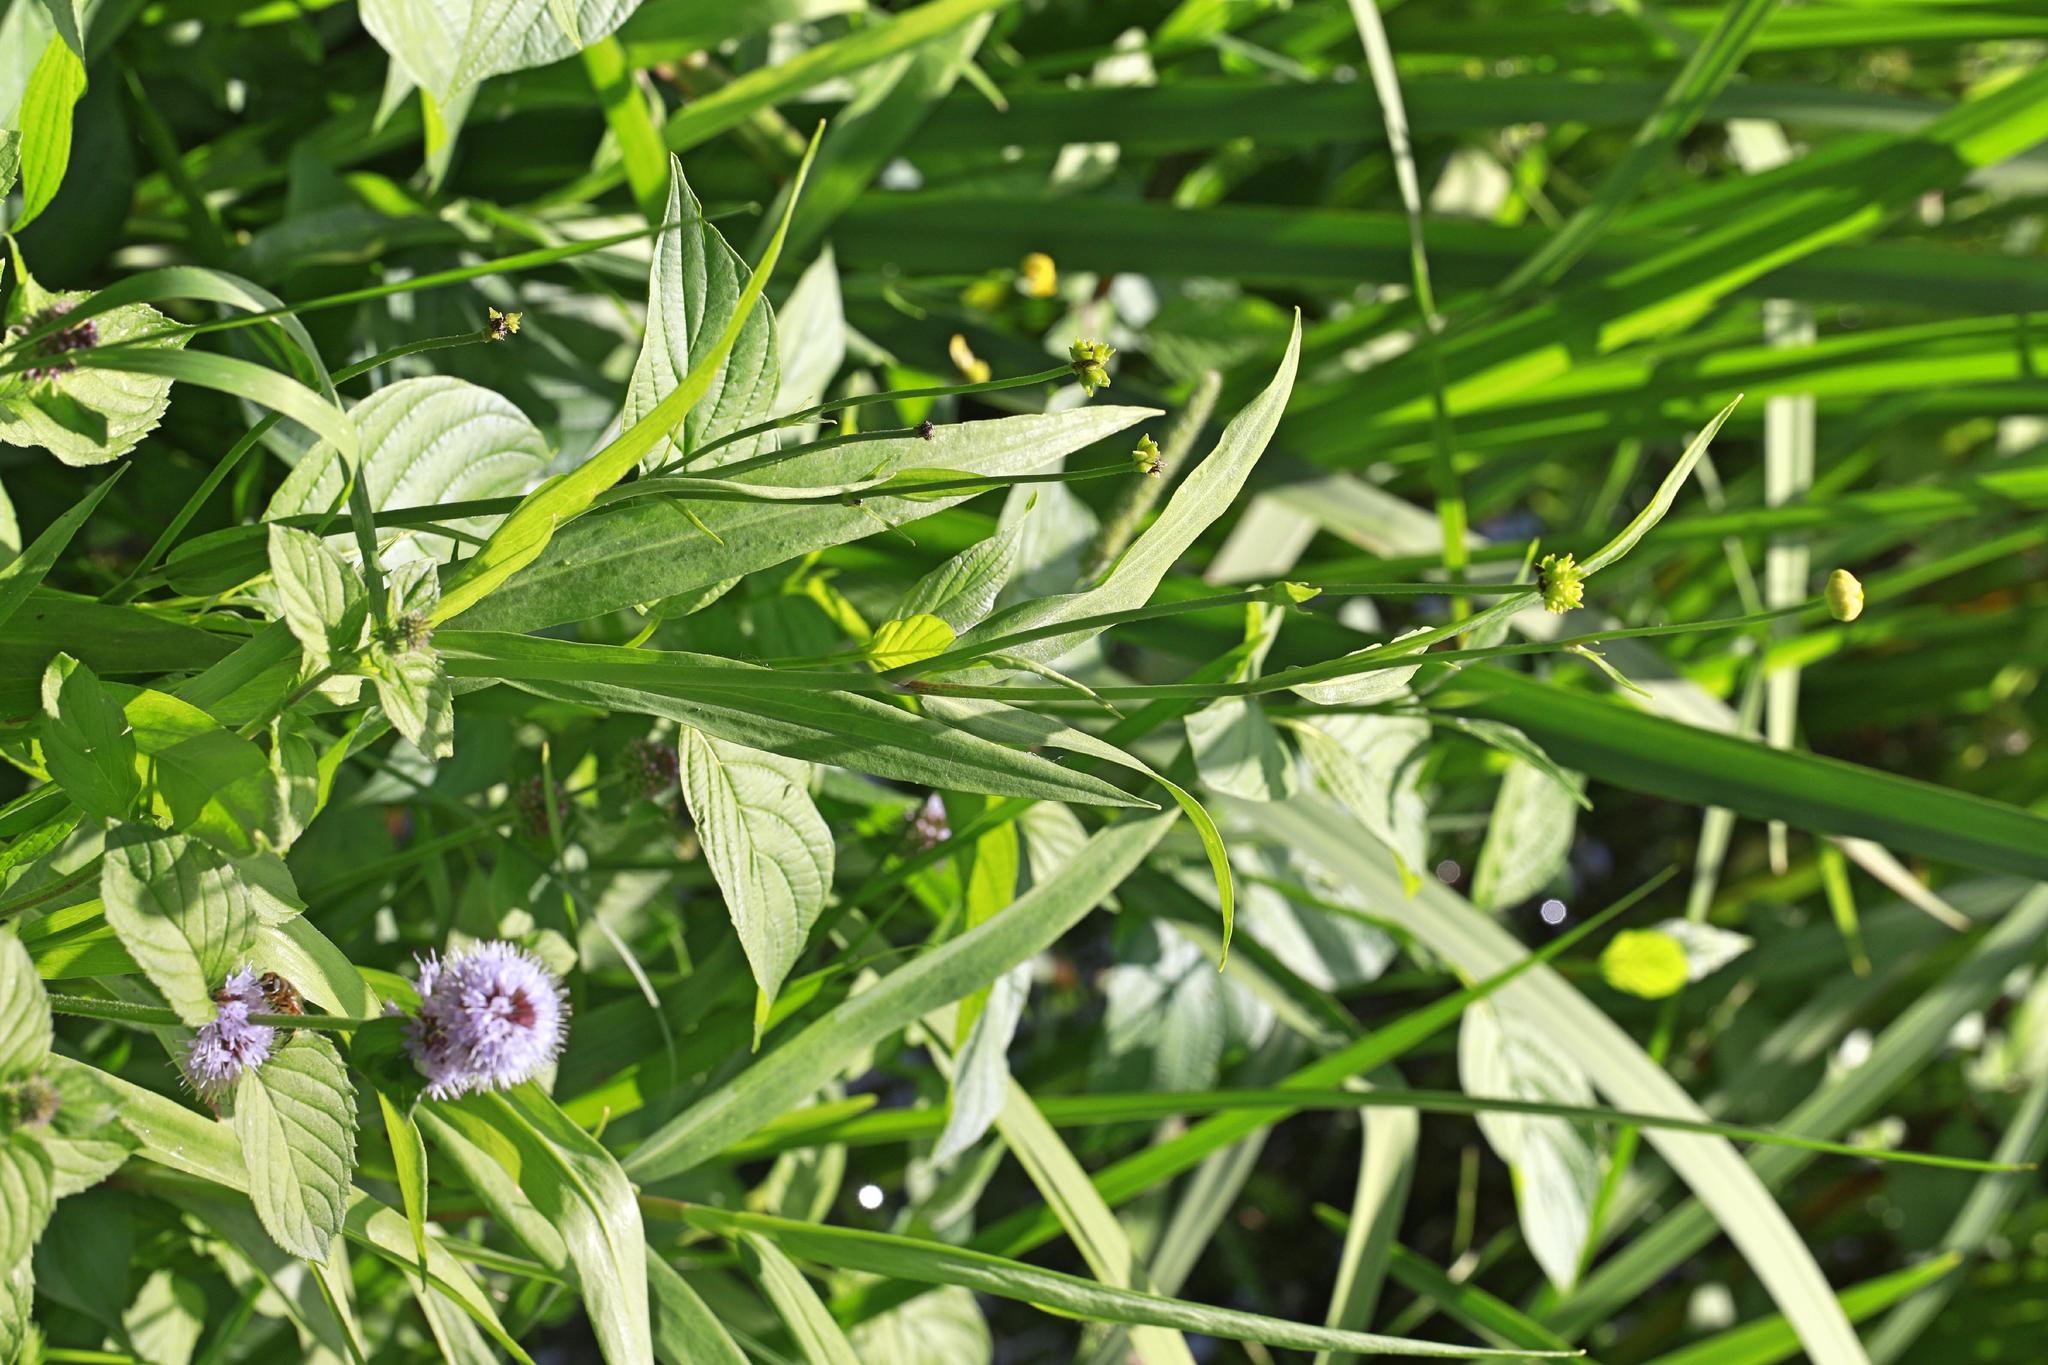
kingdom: Plantae
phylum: Tracheophyta
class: Magnoliopsida
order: Ranunculales
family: Ranunculaceae
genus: Ranunculus
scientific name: Ranunculus lingua
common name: Greater spearwort
